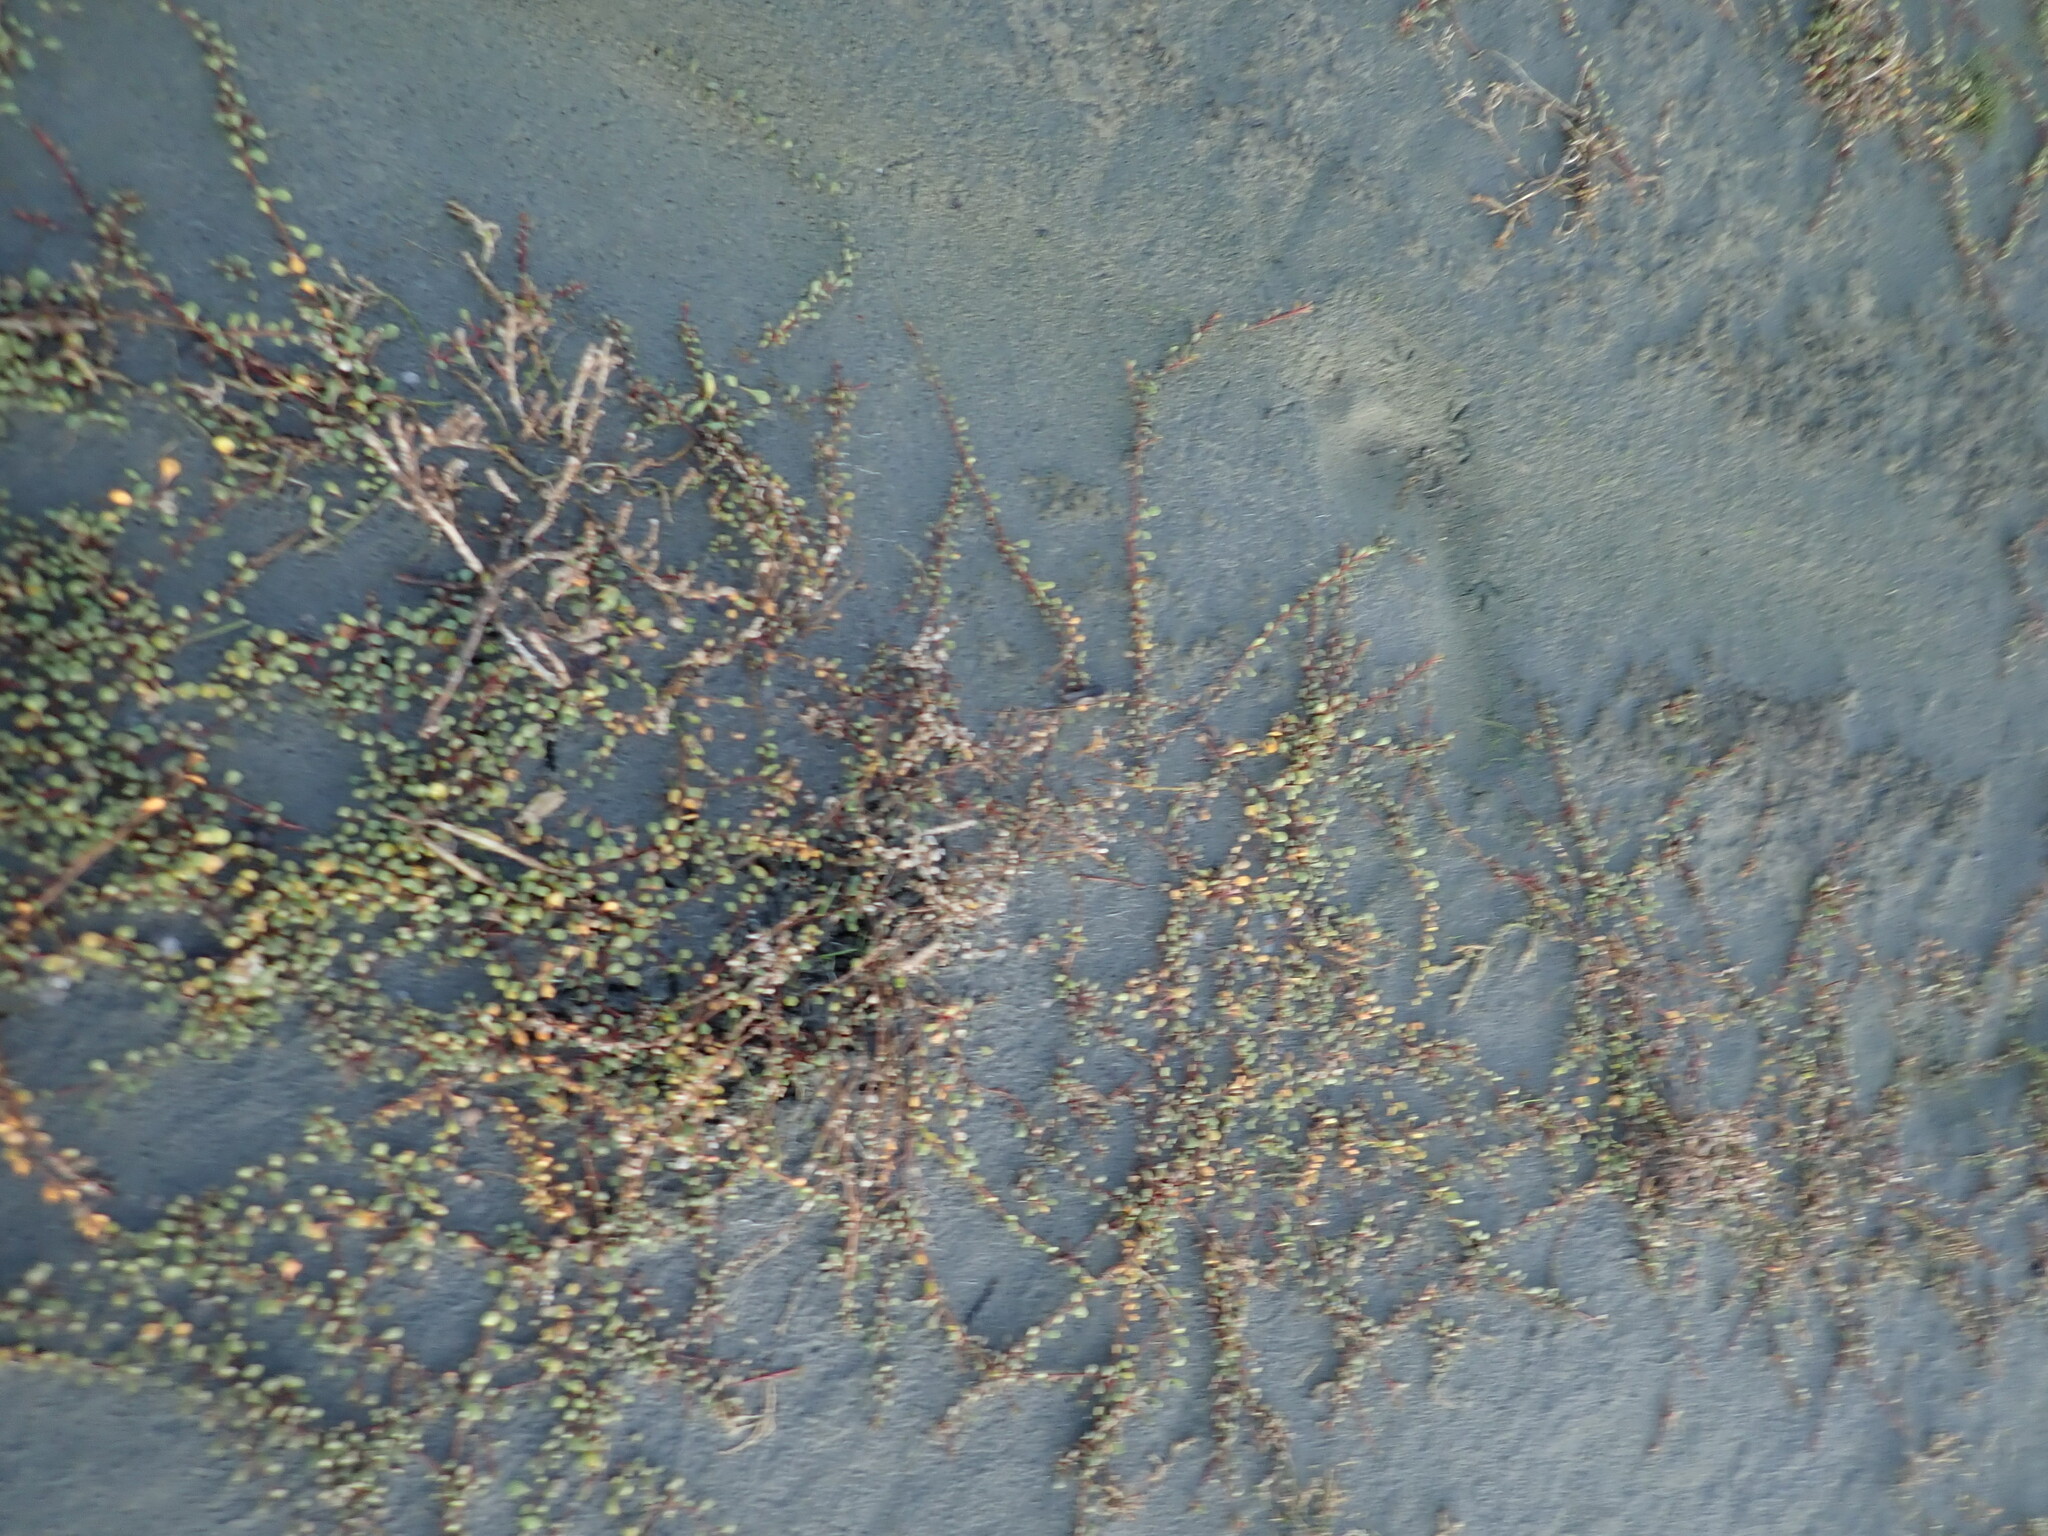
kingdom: Plantae
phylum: Tracheophyta
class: Magnoliopsida
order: Ericales
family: Primulaceae
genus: Samolus
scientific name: Samolus repens
